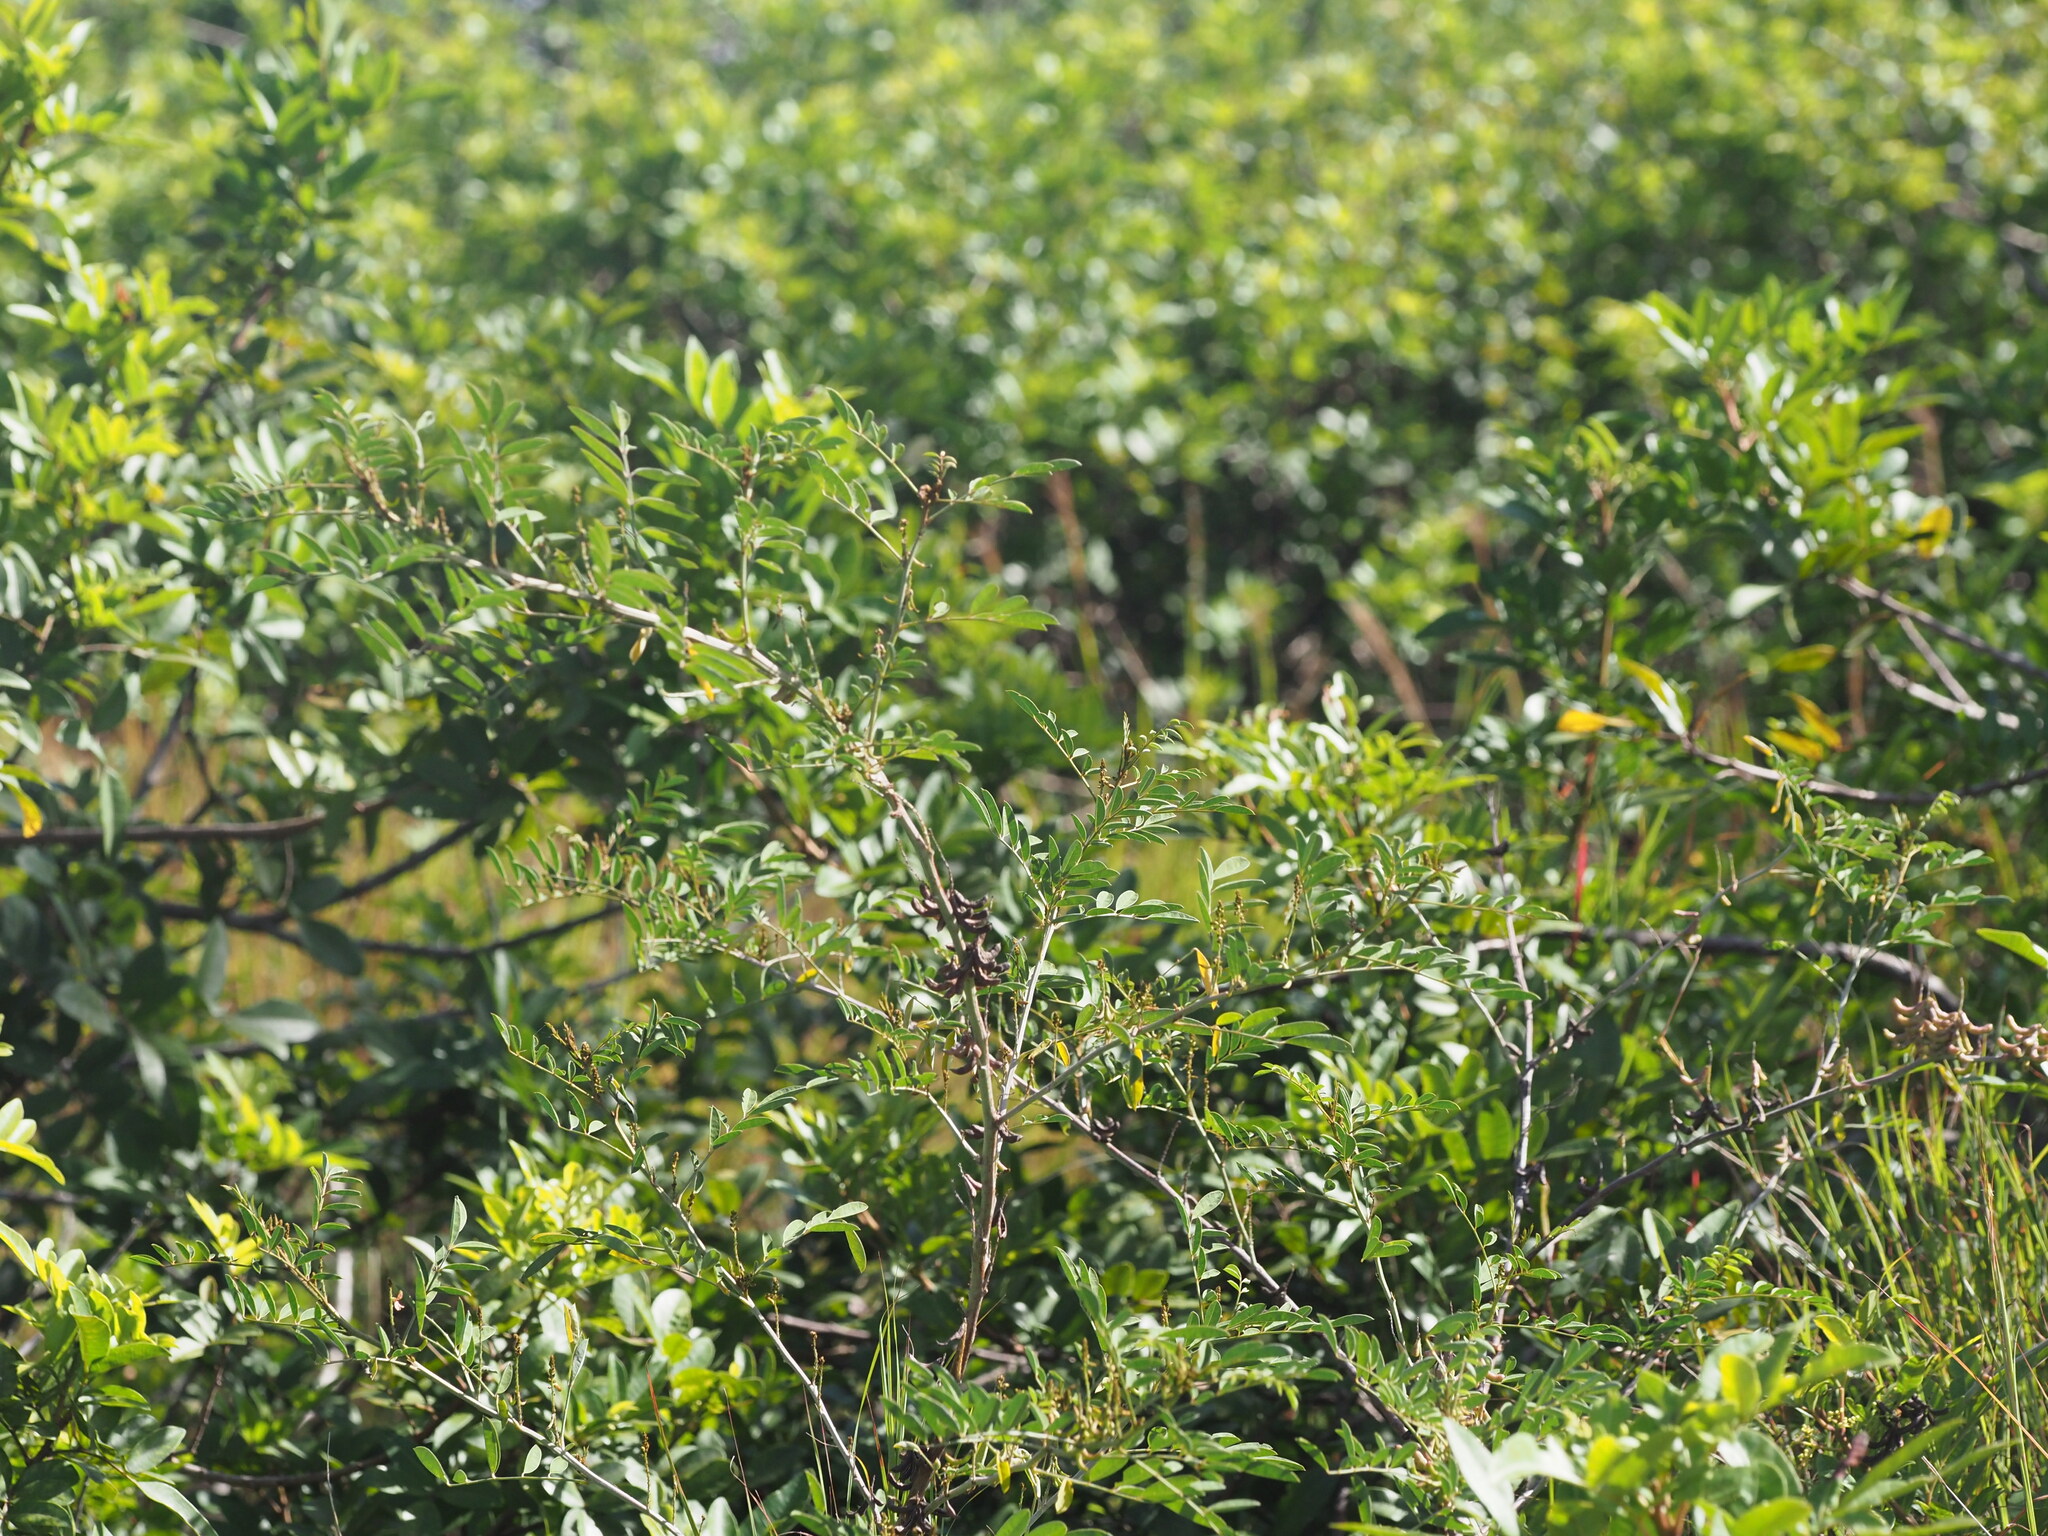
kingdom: Plantae
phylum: Tracheophyta
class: Magnoliopsida
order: Sapindales
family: Anacardiaceae
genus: Schinus
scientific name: Schinus terebinthifolia
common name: Brazilian peppertree
